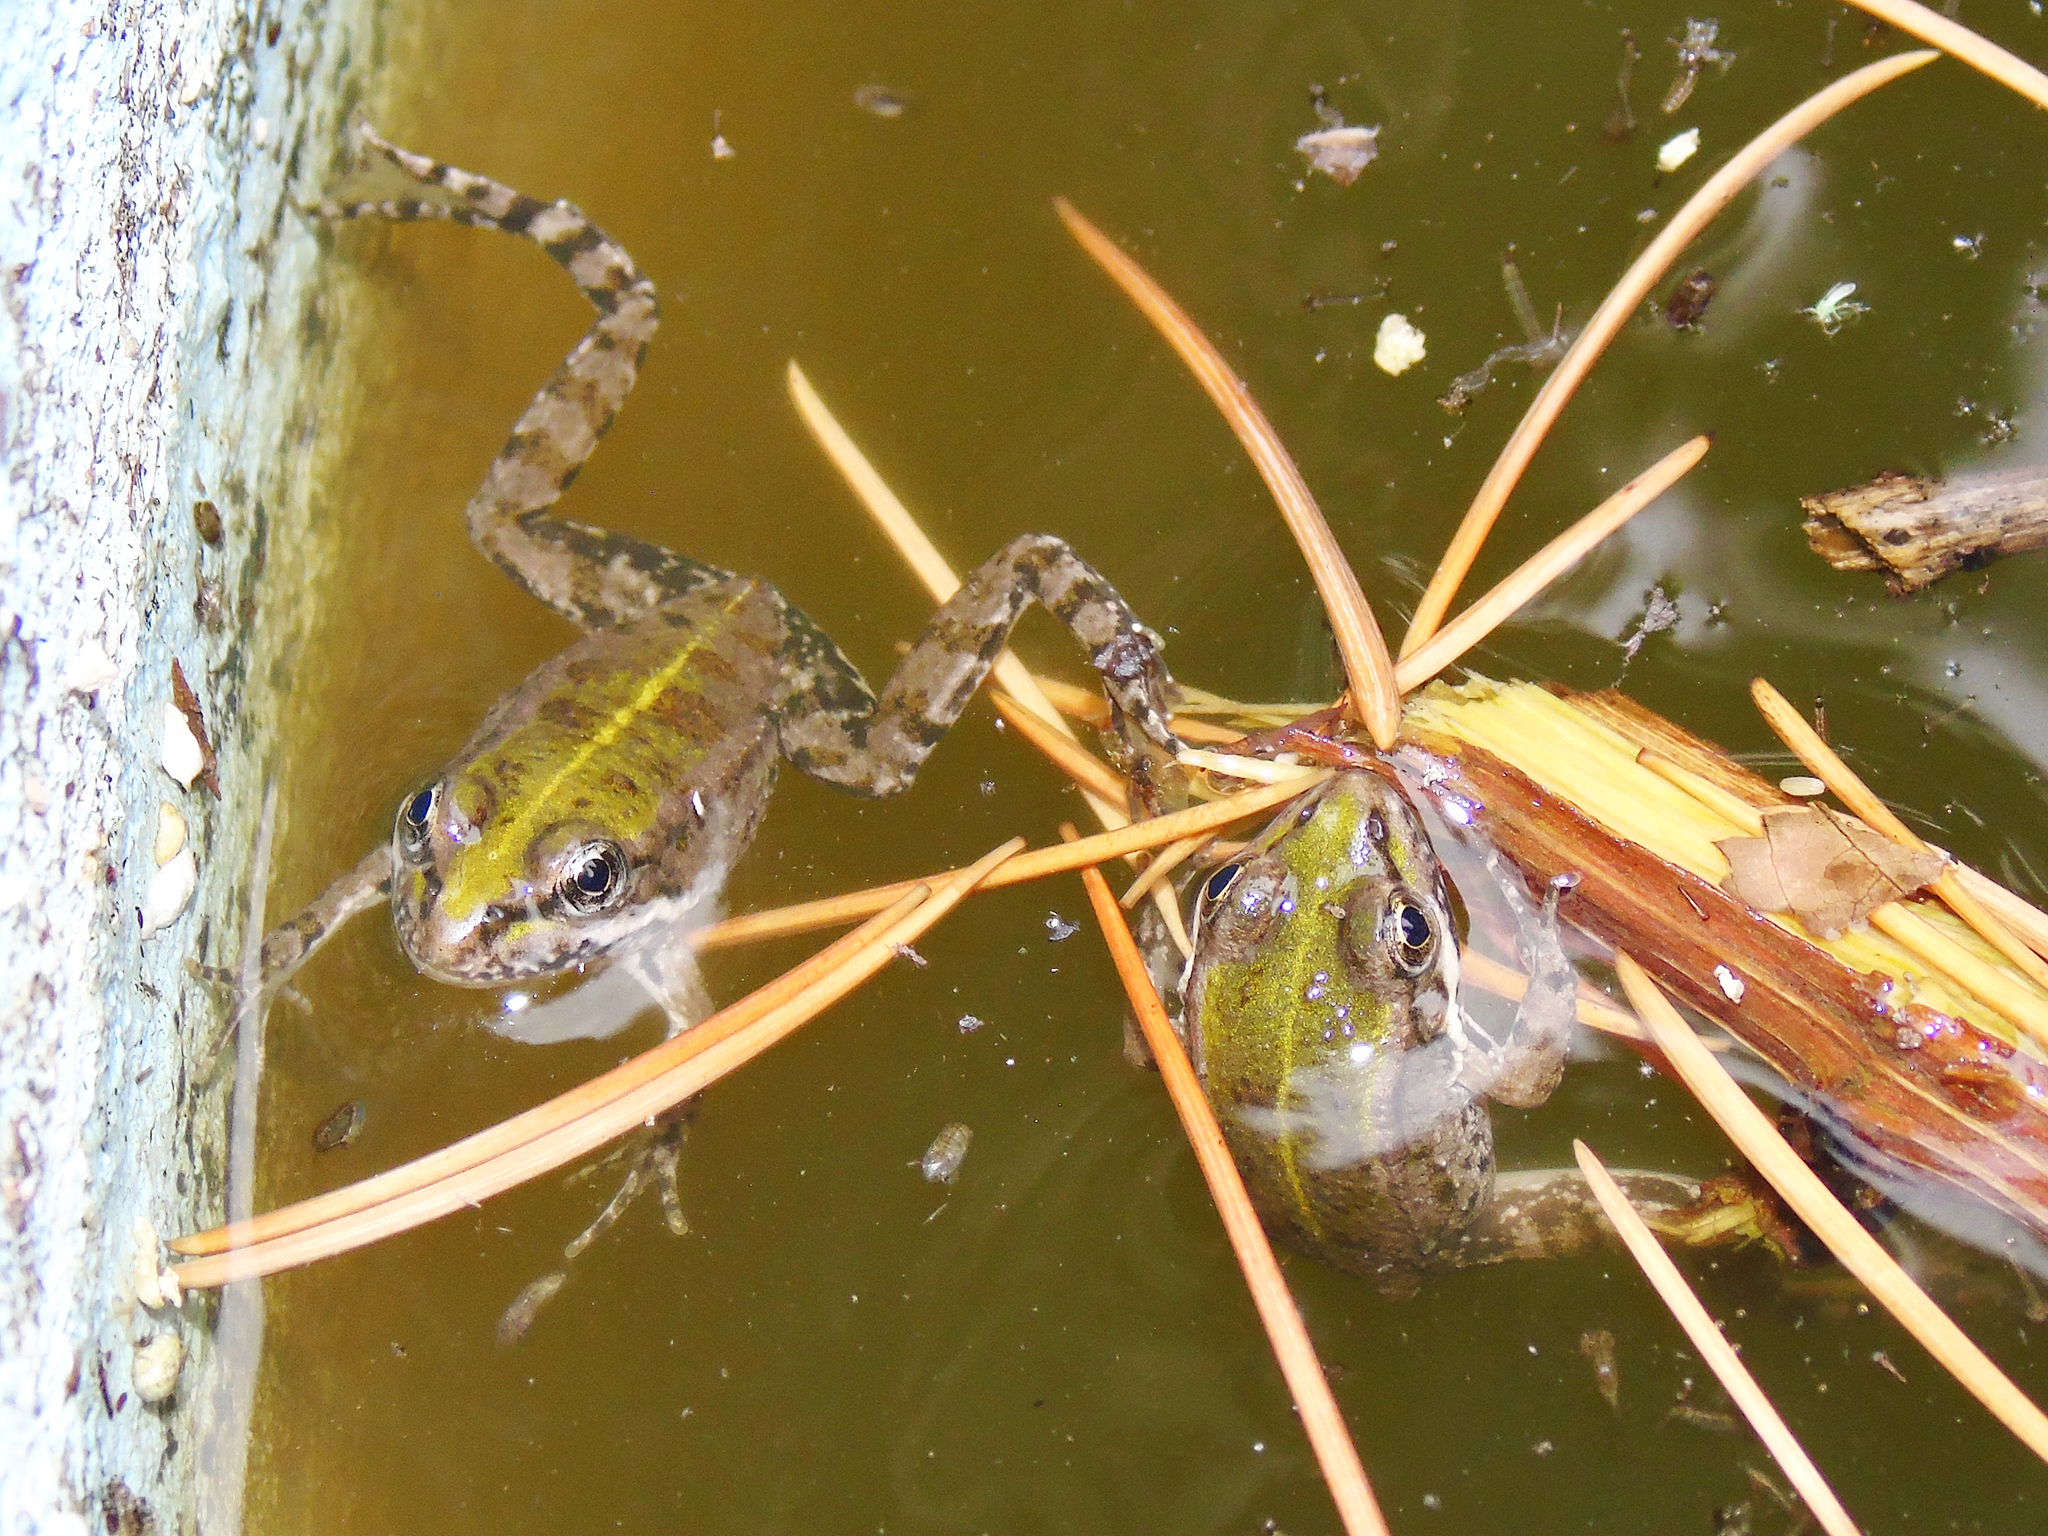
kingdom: Animalia
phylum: Chordata
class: Amphibia
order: Anura
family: Ranidae
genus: Pelophylax
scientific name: Pelophylax ridibundus
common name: Marsh frog
